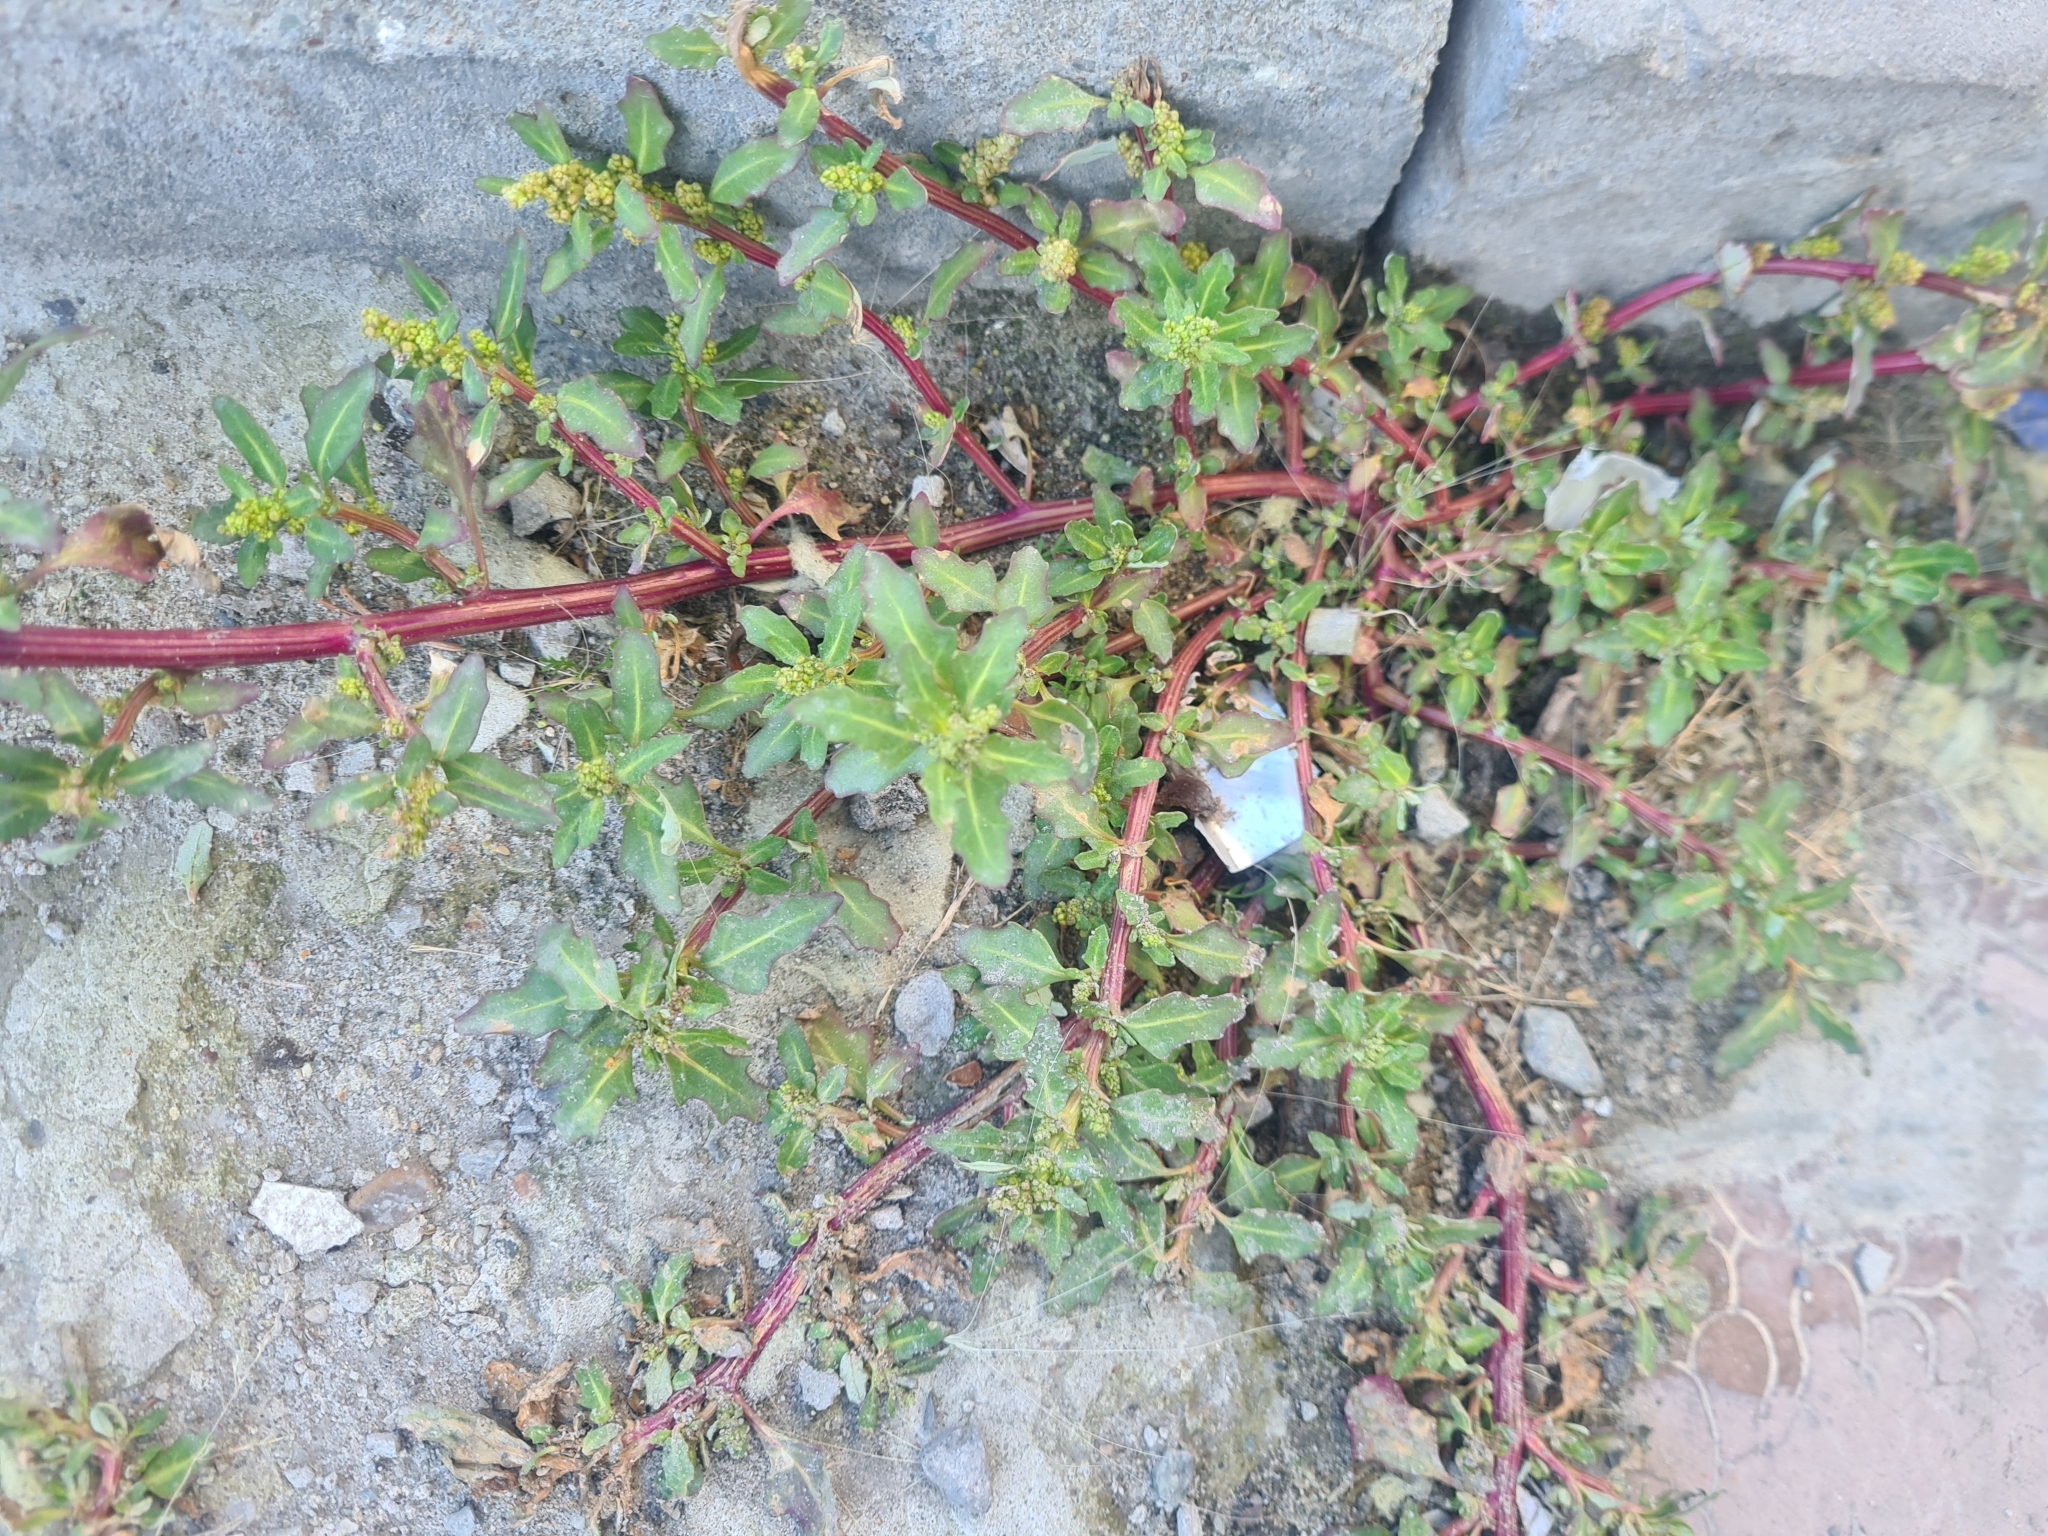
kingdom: Plantae
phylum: Tracheophyta
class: Magnoliopsida
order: Caryophyllales
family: Amaranthaceae
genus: Oxybasis
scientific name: Oxybasis glauca
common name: Glaucous goosefoot
